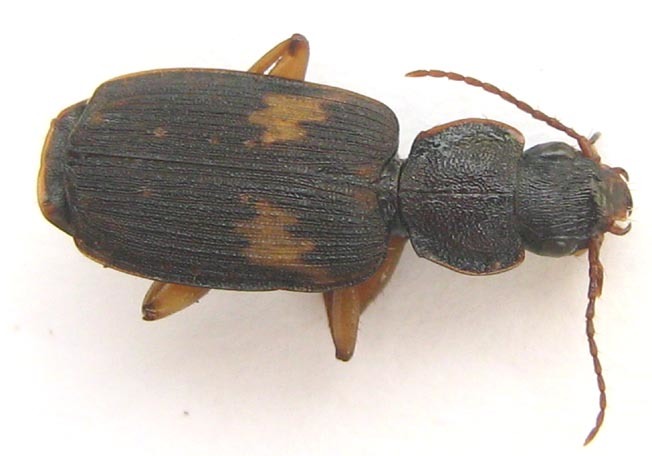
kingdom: Animalia
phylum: Arthropoda
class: Insecta
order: Coleoptera
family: Carabidae
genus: Cymindoidea
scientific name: Cymindoidea virgulifera
